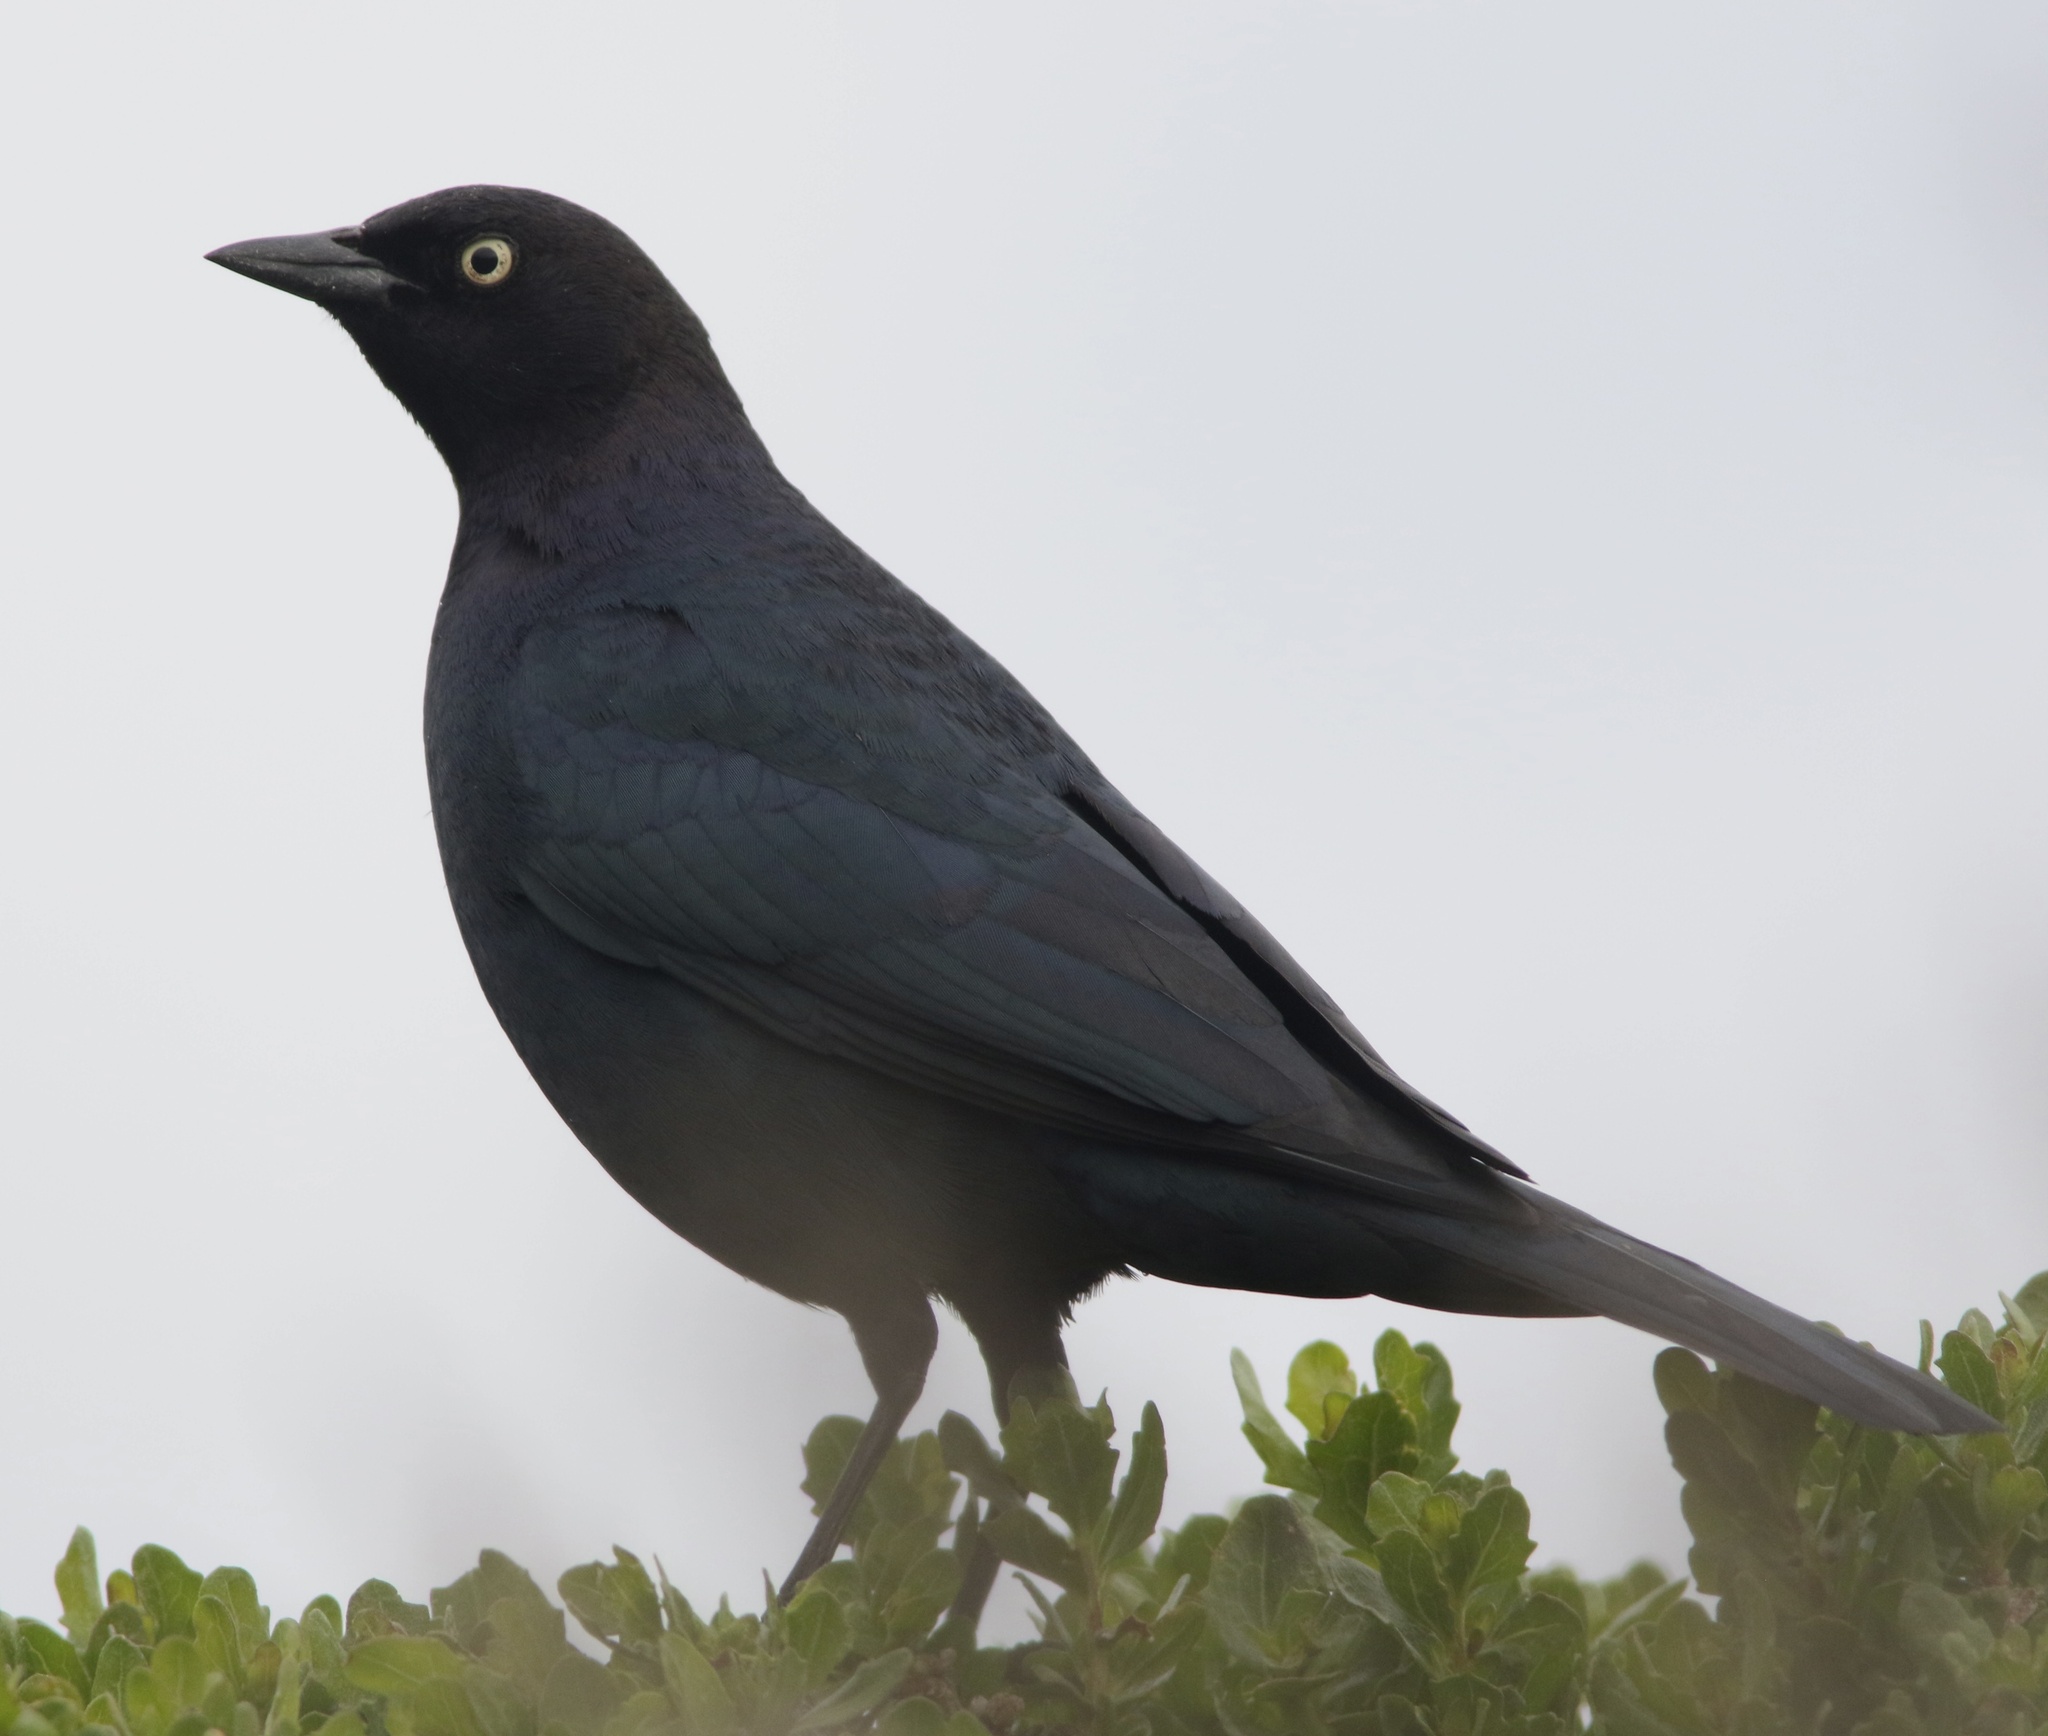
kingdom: Animalia
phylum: Chordata
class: Aves
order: Passeriformes
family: Icteridae
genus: Euphagus
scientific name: Euphagus cyanocephalus
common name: Brewer's blackbird
